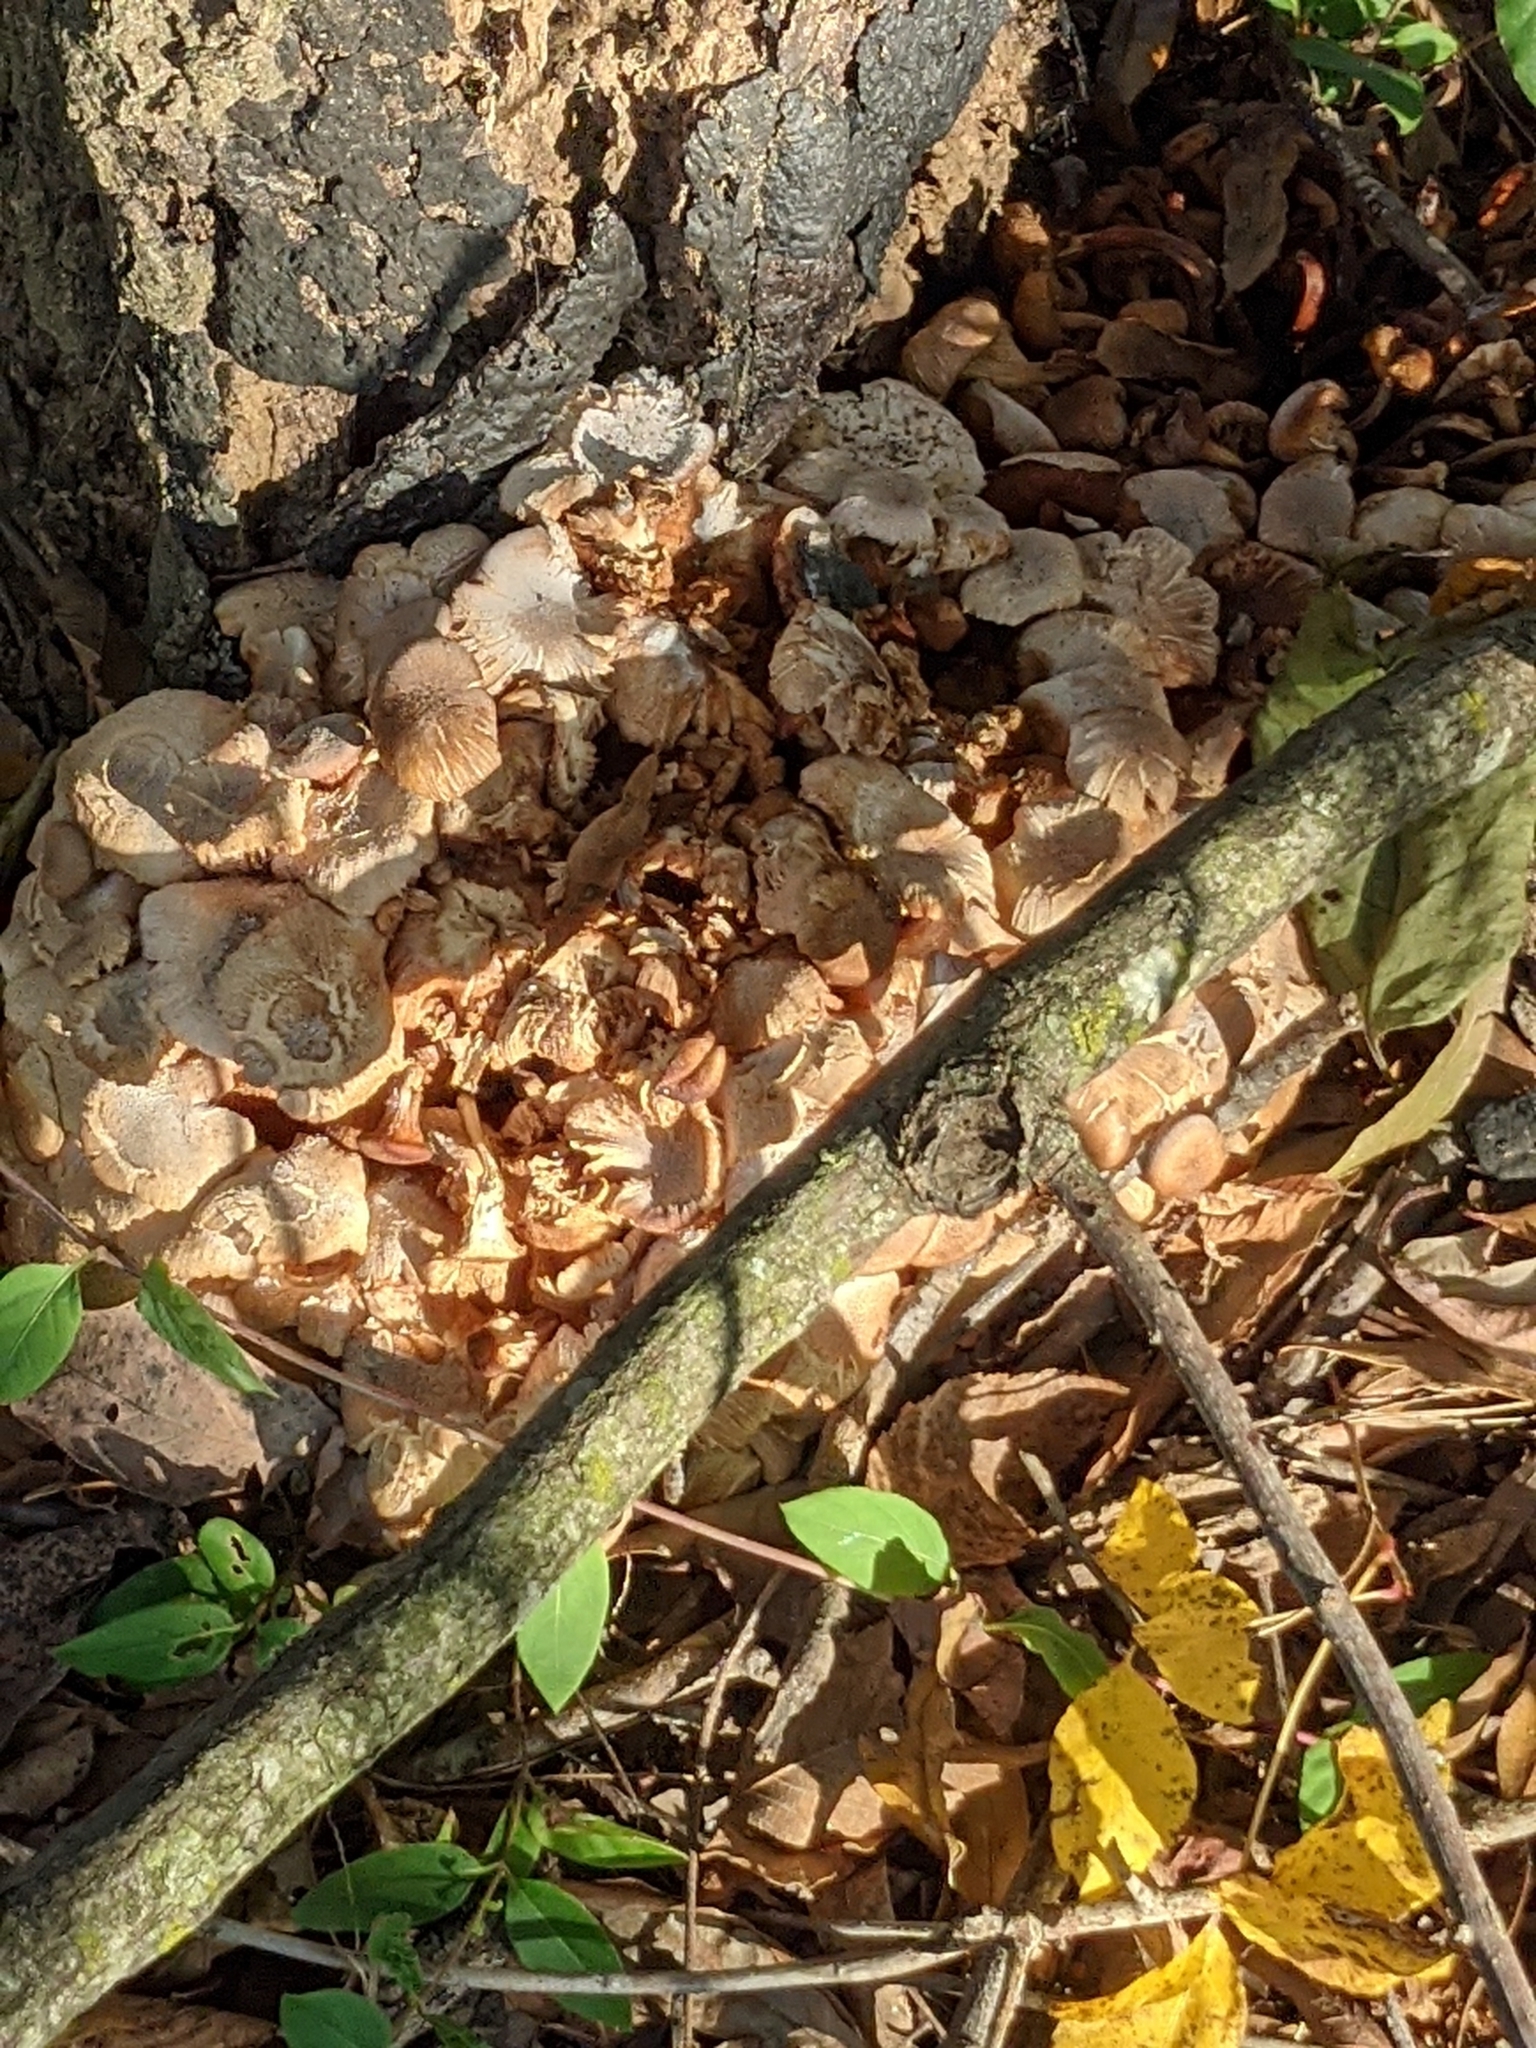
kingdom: Fungi
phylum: Basidiomycota
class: Agaricomycetes
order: Agaricales
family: Physalacriaceae
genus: Desarmillaria
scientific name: Desarmillaria caespitosa
